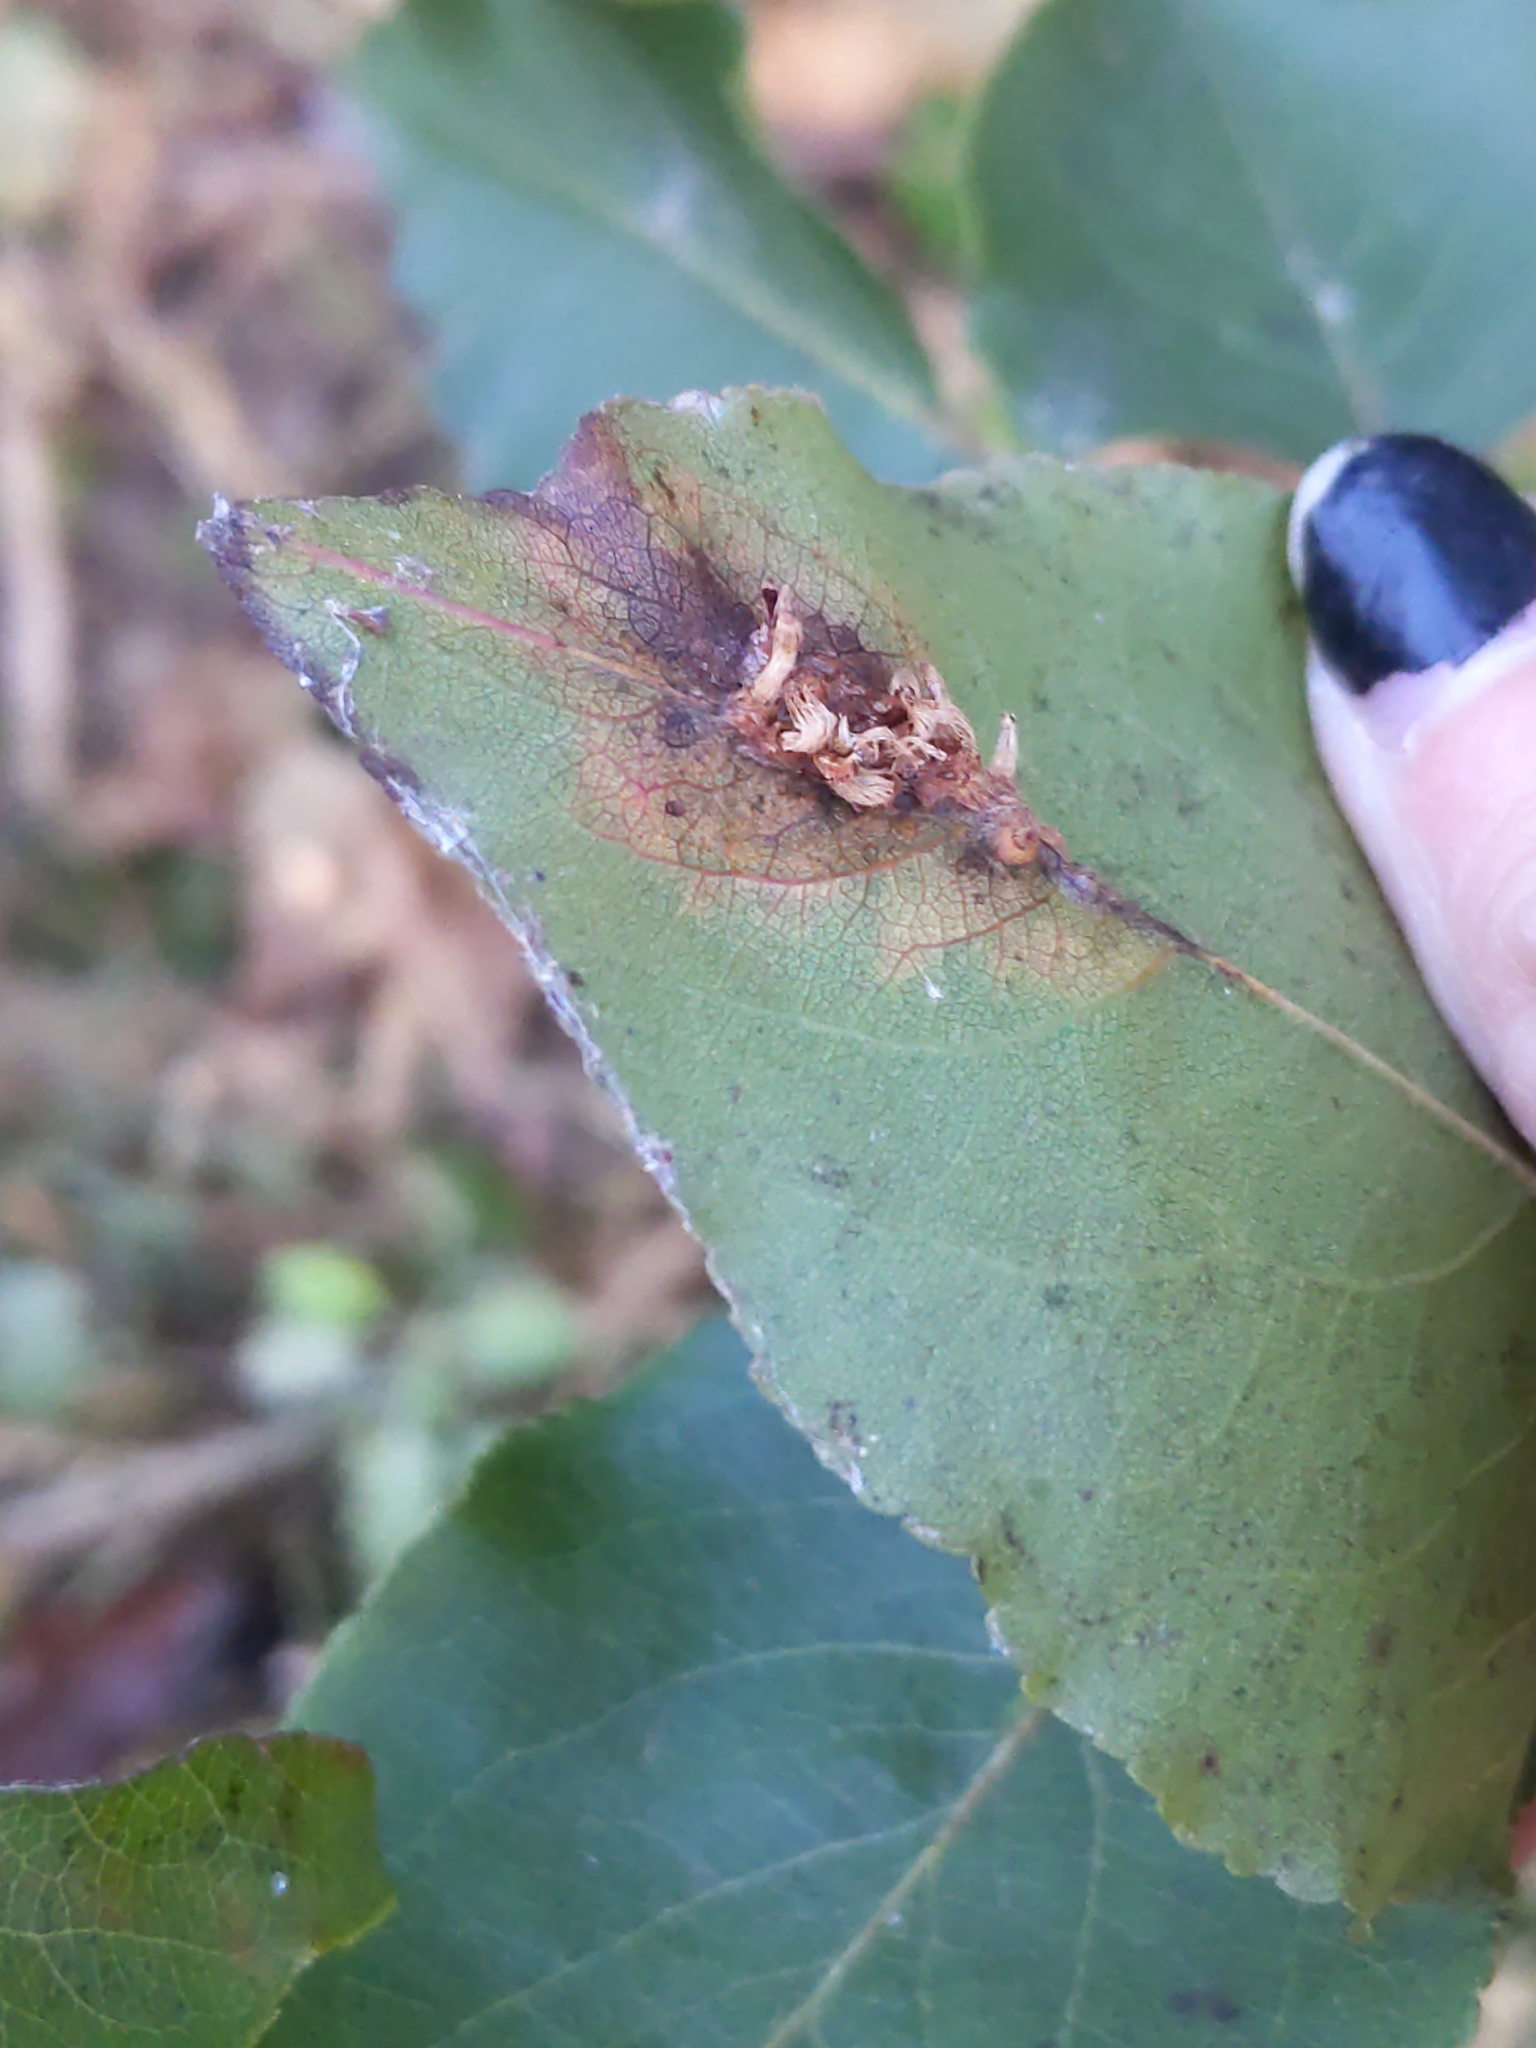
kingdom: Fungi
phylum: Basidiomycota
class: Pucciniomycetes
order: Pucciniales
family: Gymnosporangiaceae
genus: Gymnosporangium
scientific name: Gymnosporangium sabinae
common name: Pear trellis rust fungus
